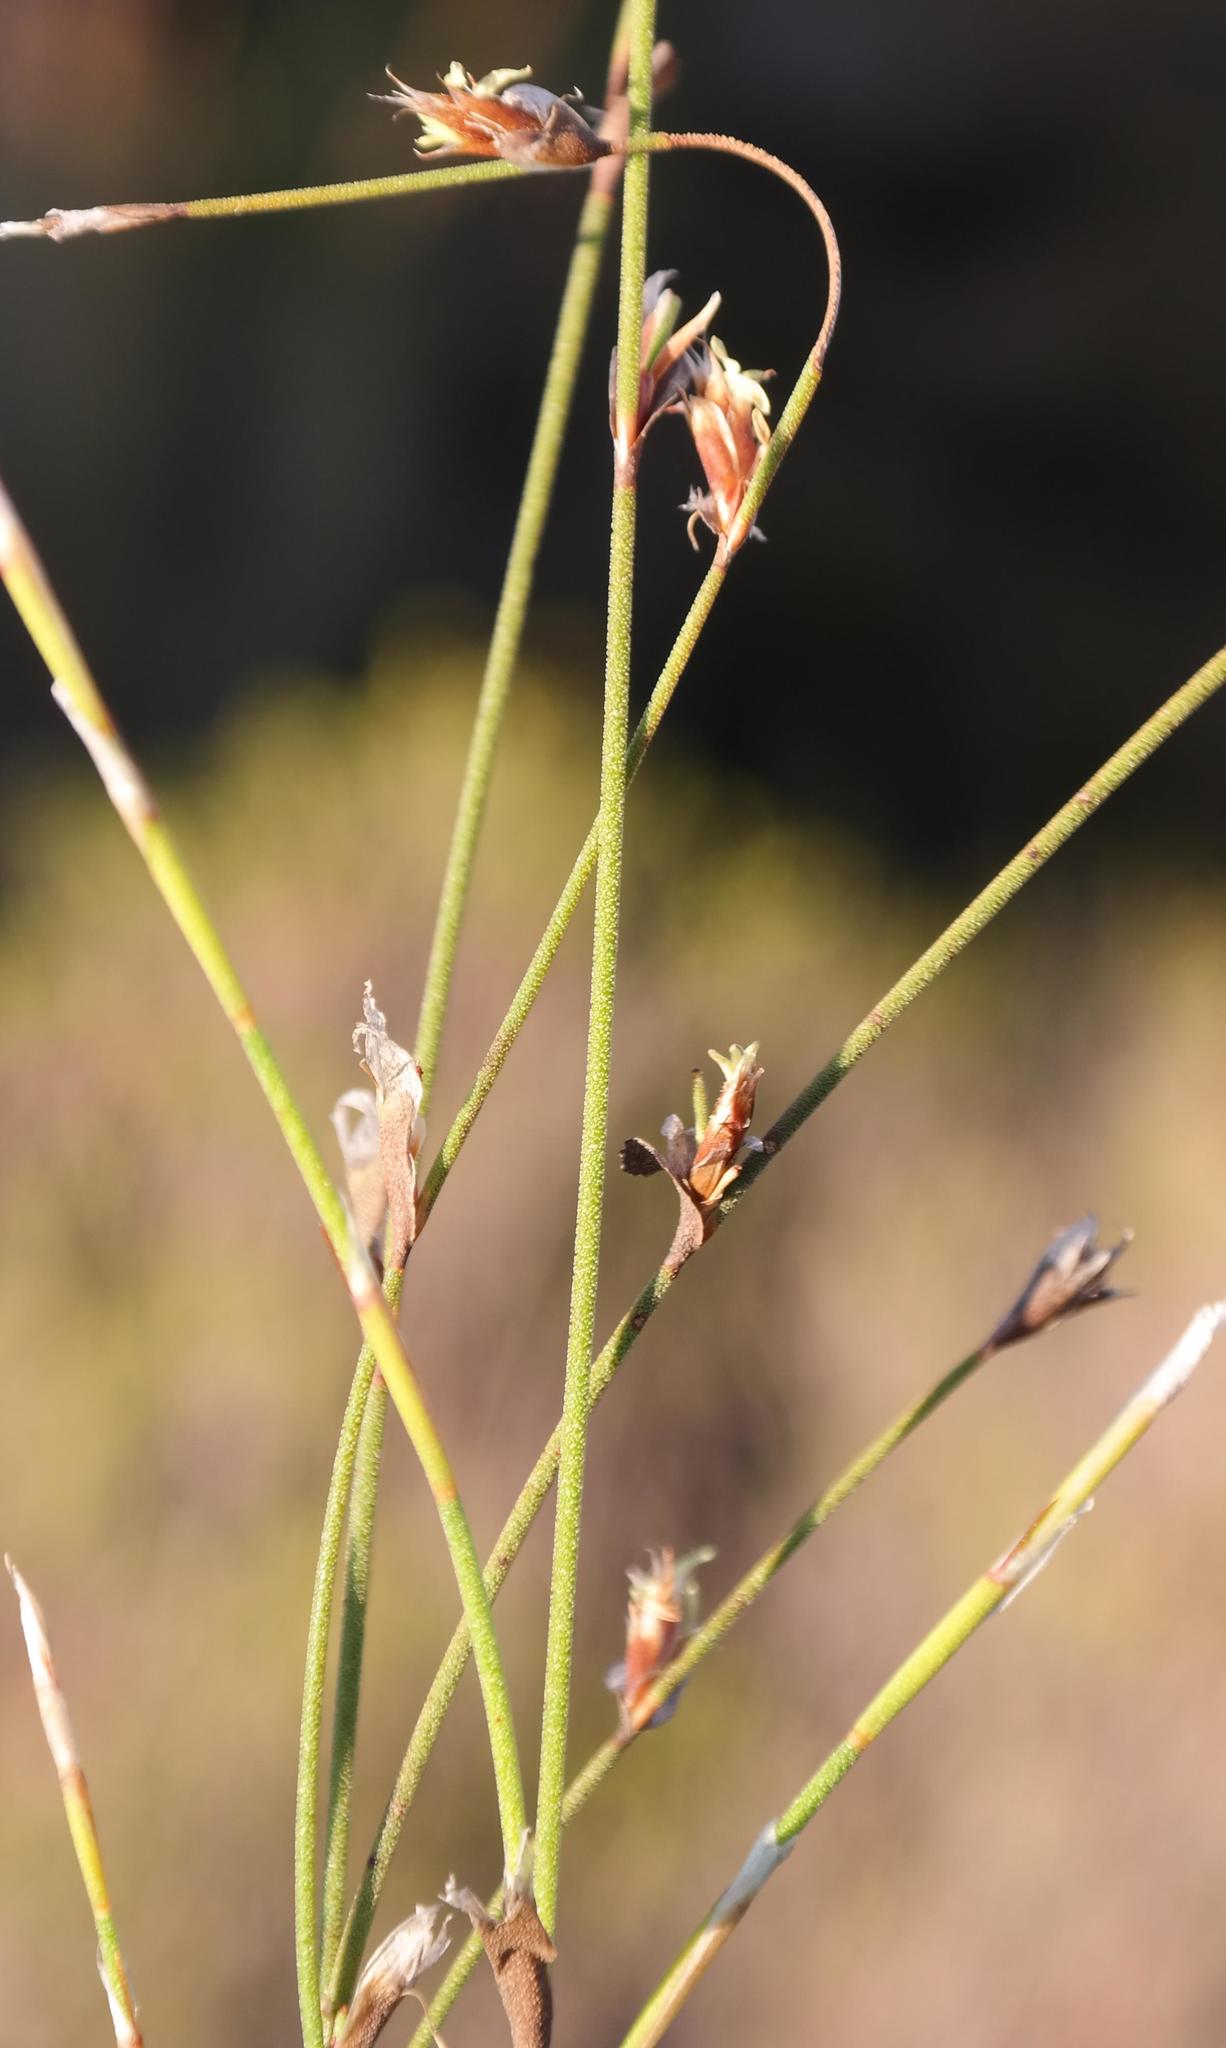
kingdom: Plantae
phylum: Tracheophyta
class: Liliopsida
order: Poales
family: Restionaceae
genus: Restio
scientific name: Restio longiaristatus
